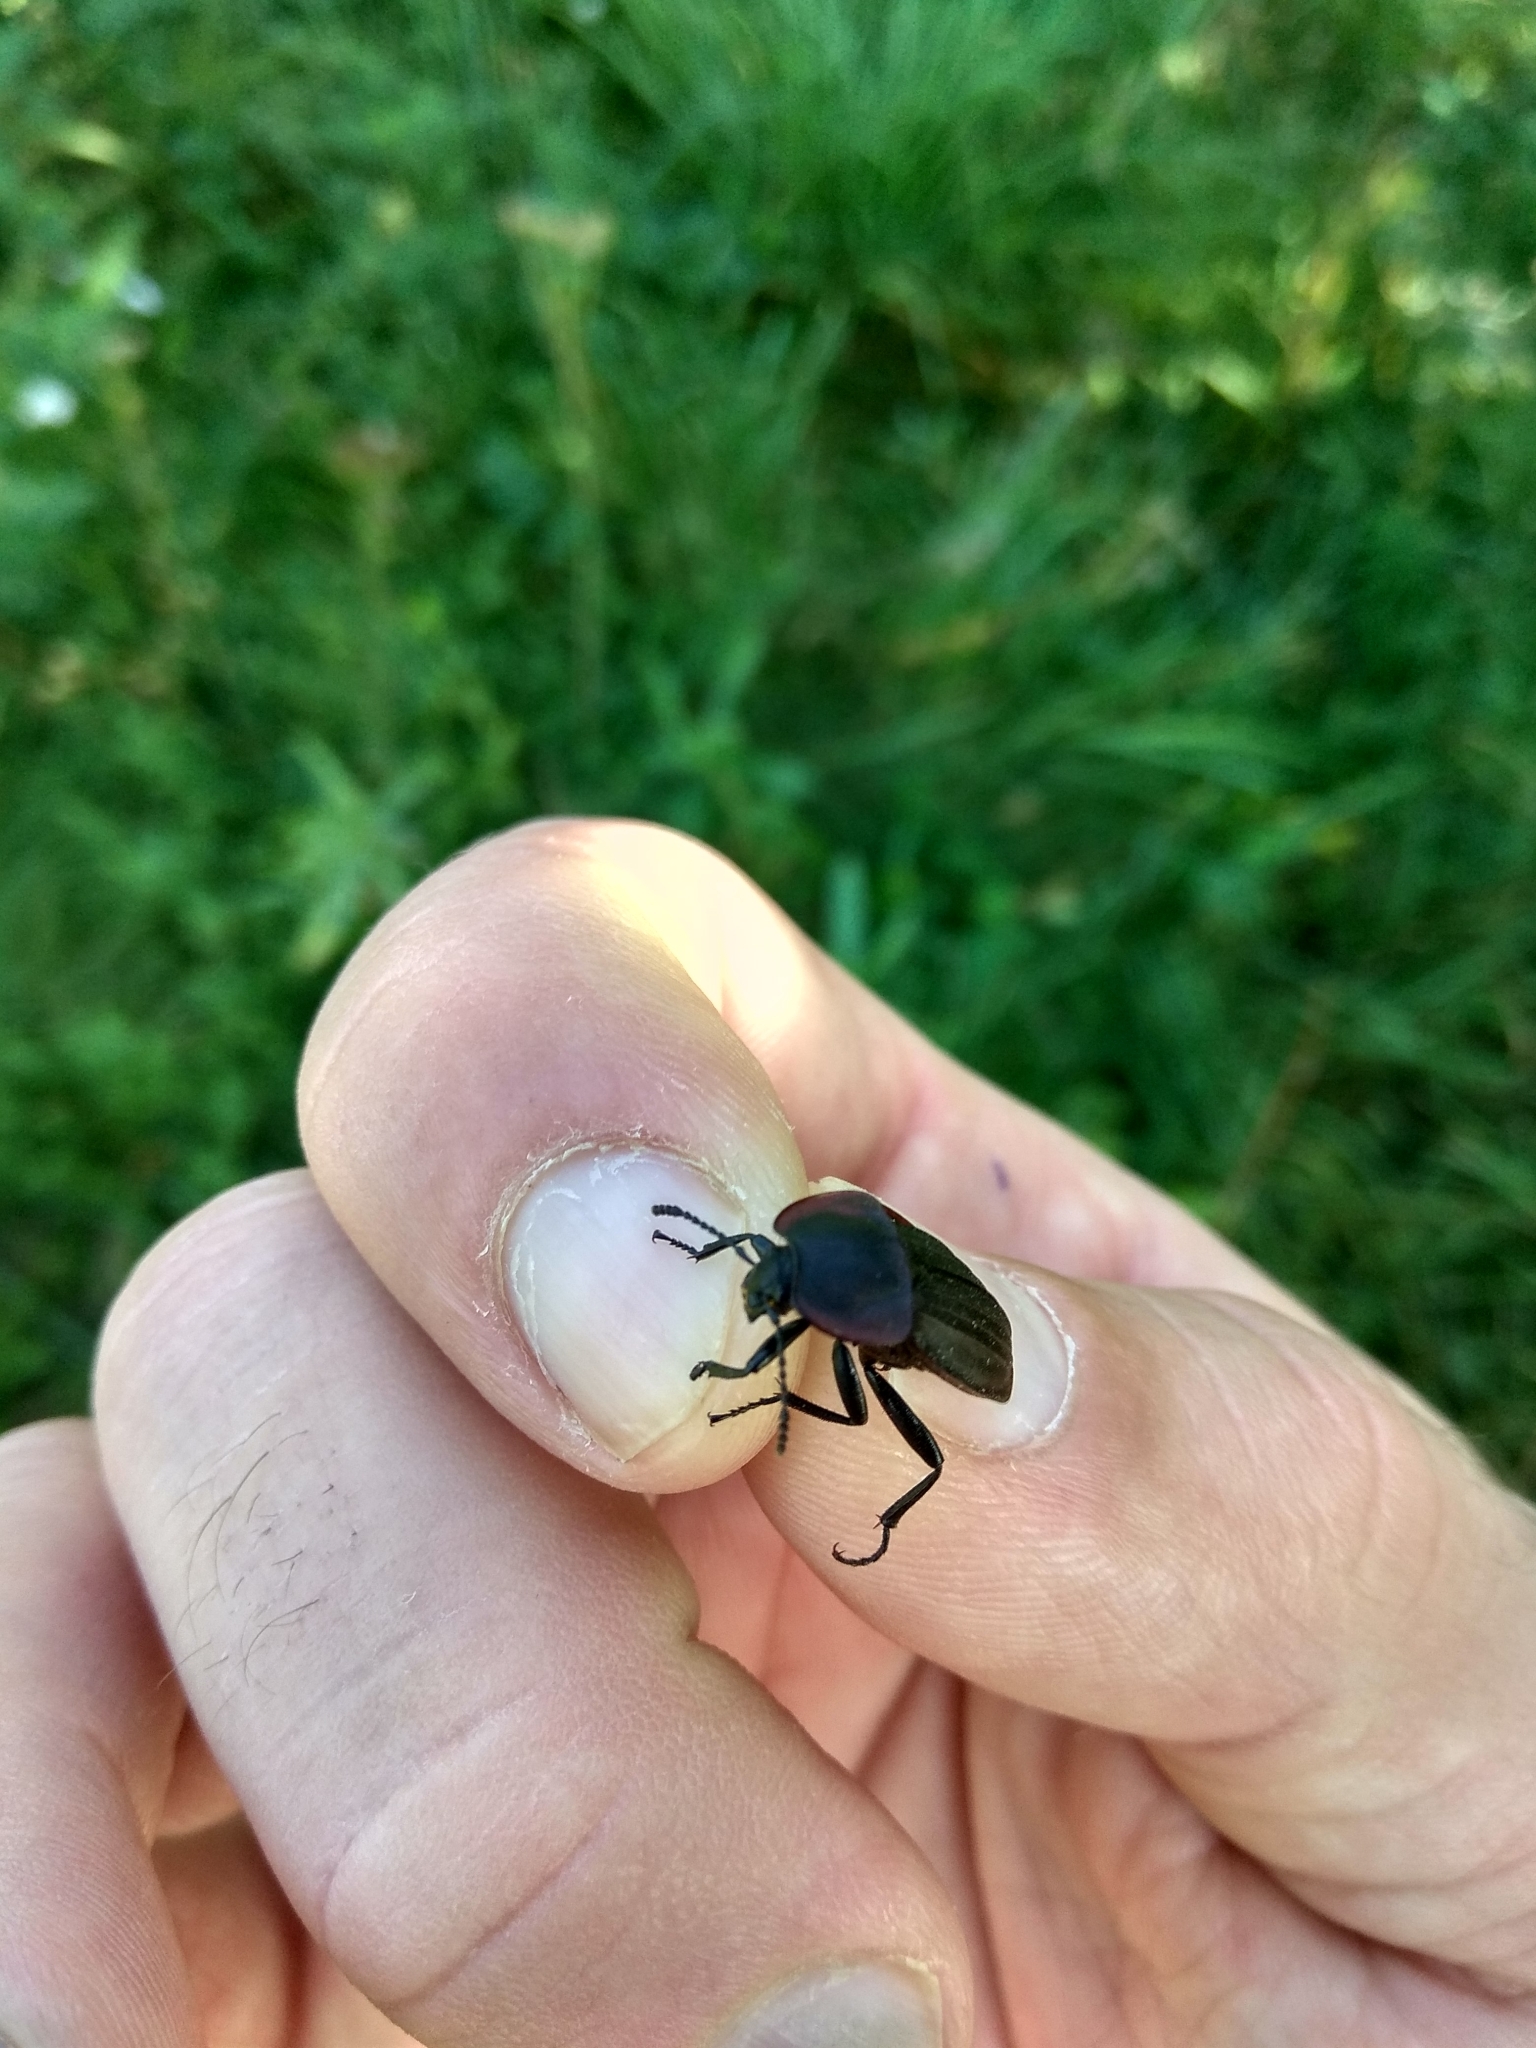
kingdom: Animalia
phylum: Arthropoda
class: Insecta
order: Coleoptera
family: Staphylinidae
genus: Silpha
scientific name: Silpha carinata
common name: Silphid beetle
